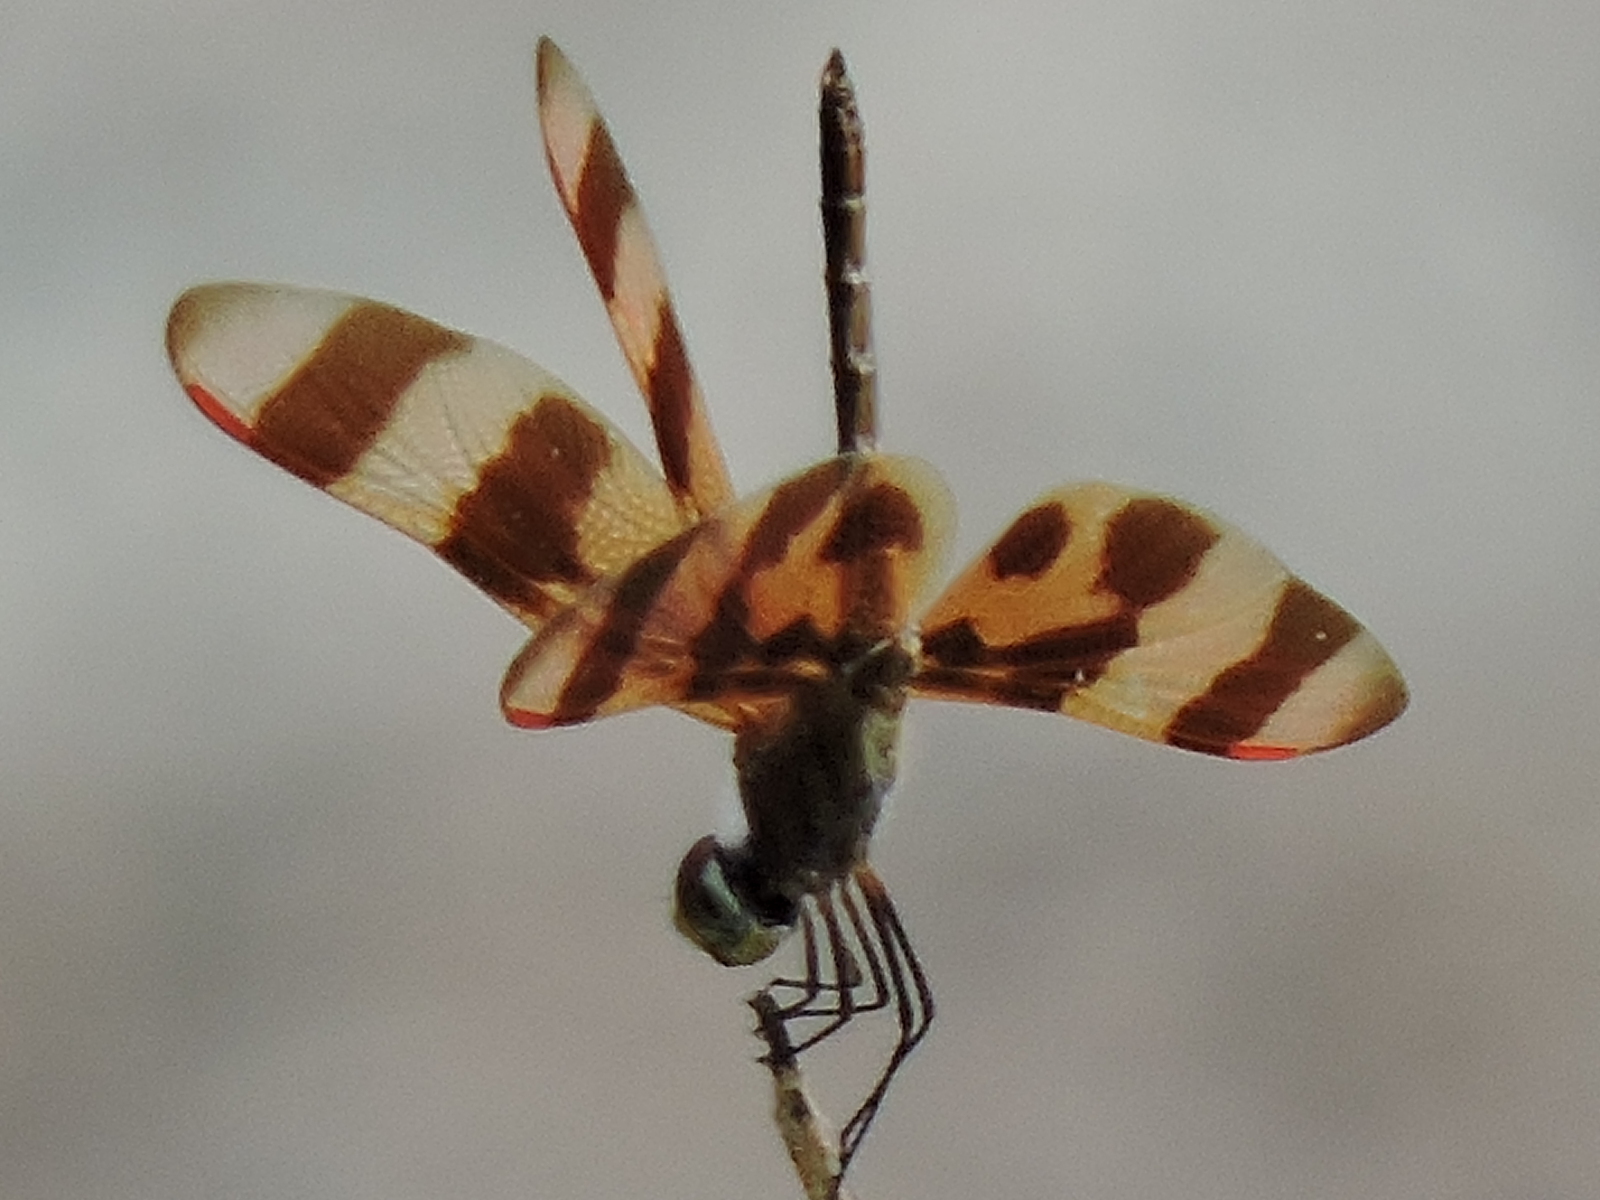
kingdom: Animalia
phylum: Arthropoda
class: Insecta
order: Odonata
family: Libellulidae
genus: Celithemis
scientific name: Celithemis eponina
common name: Halloween pennant
